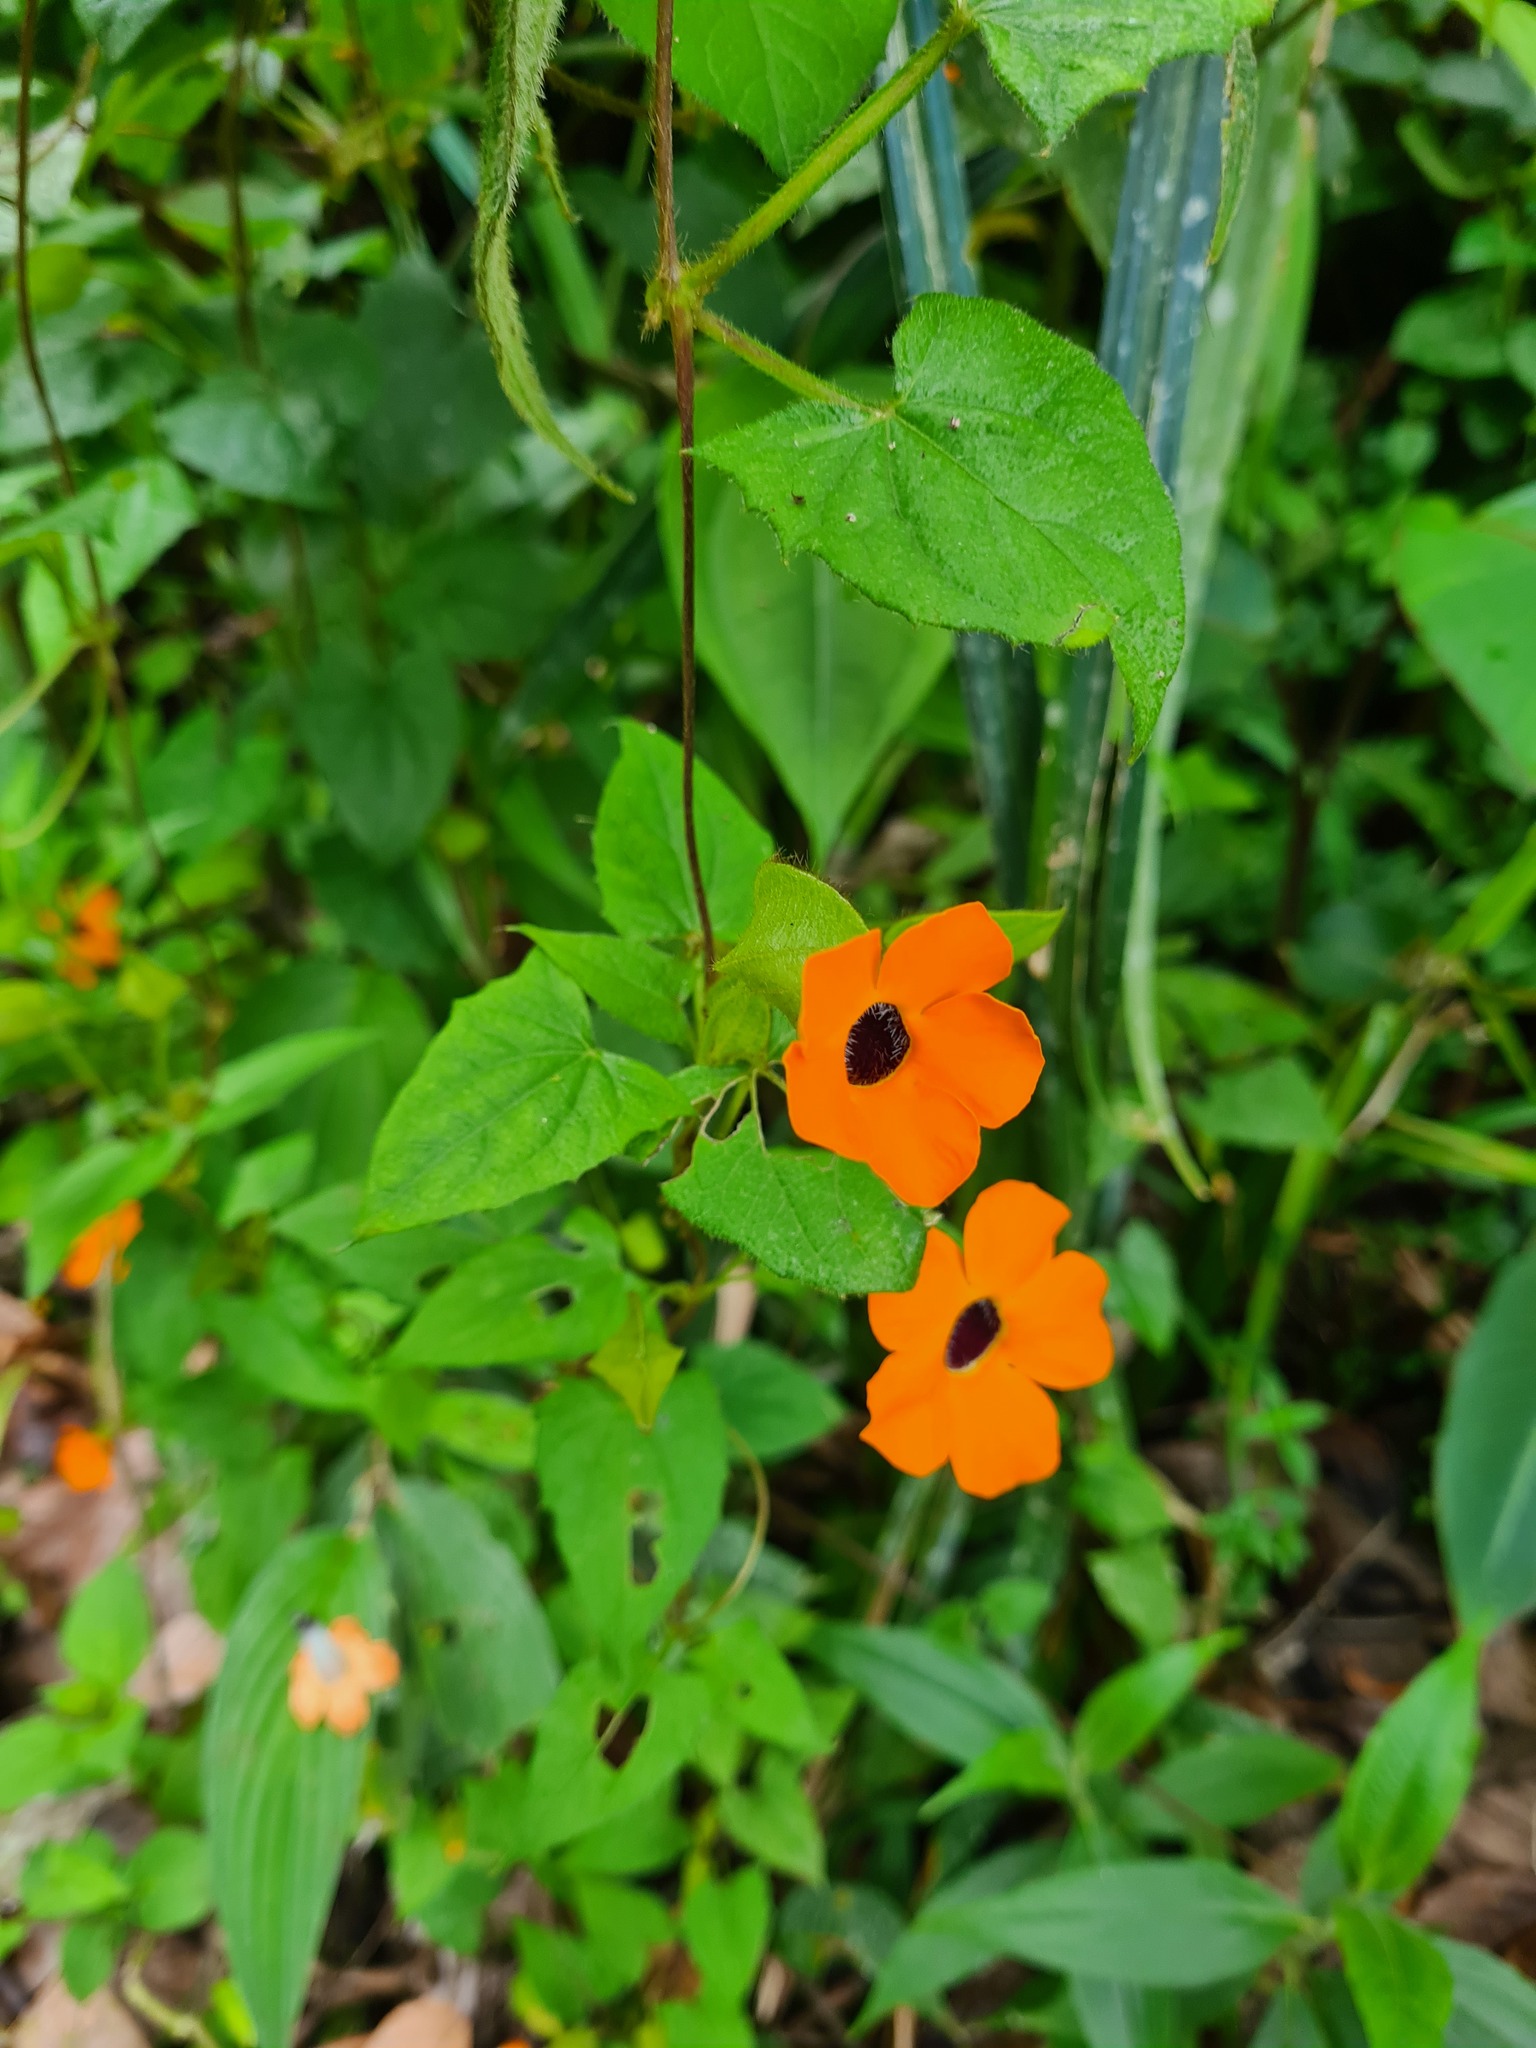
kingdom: Plantae
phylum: Tracheophyta
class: Magnoliopsida
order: Lamiales
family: Acanthaceae
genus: Thunbergia
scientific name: Thunbergia alata
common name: Blackeyed susan vine
